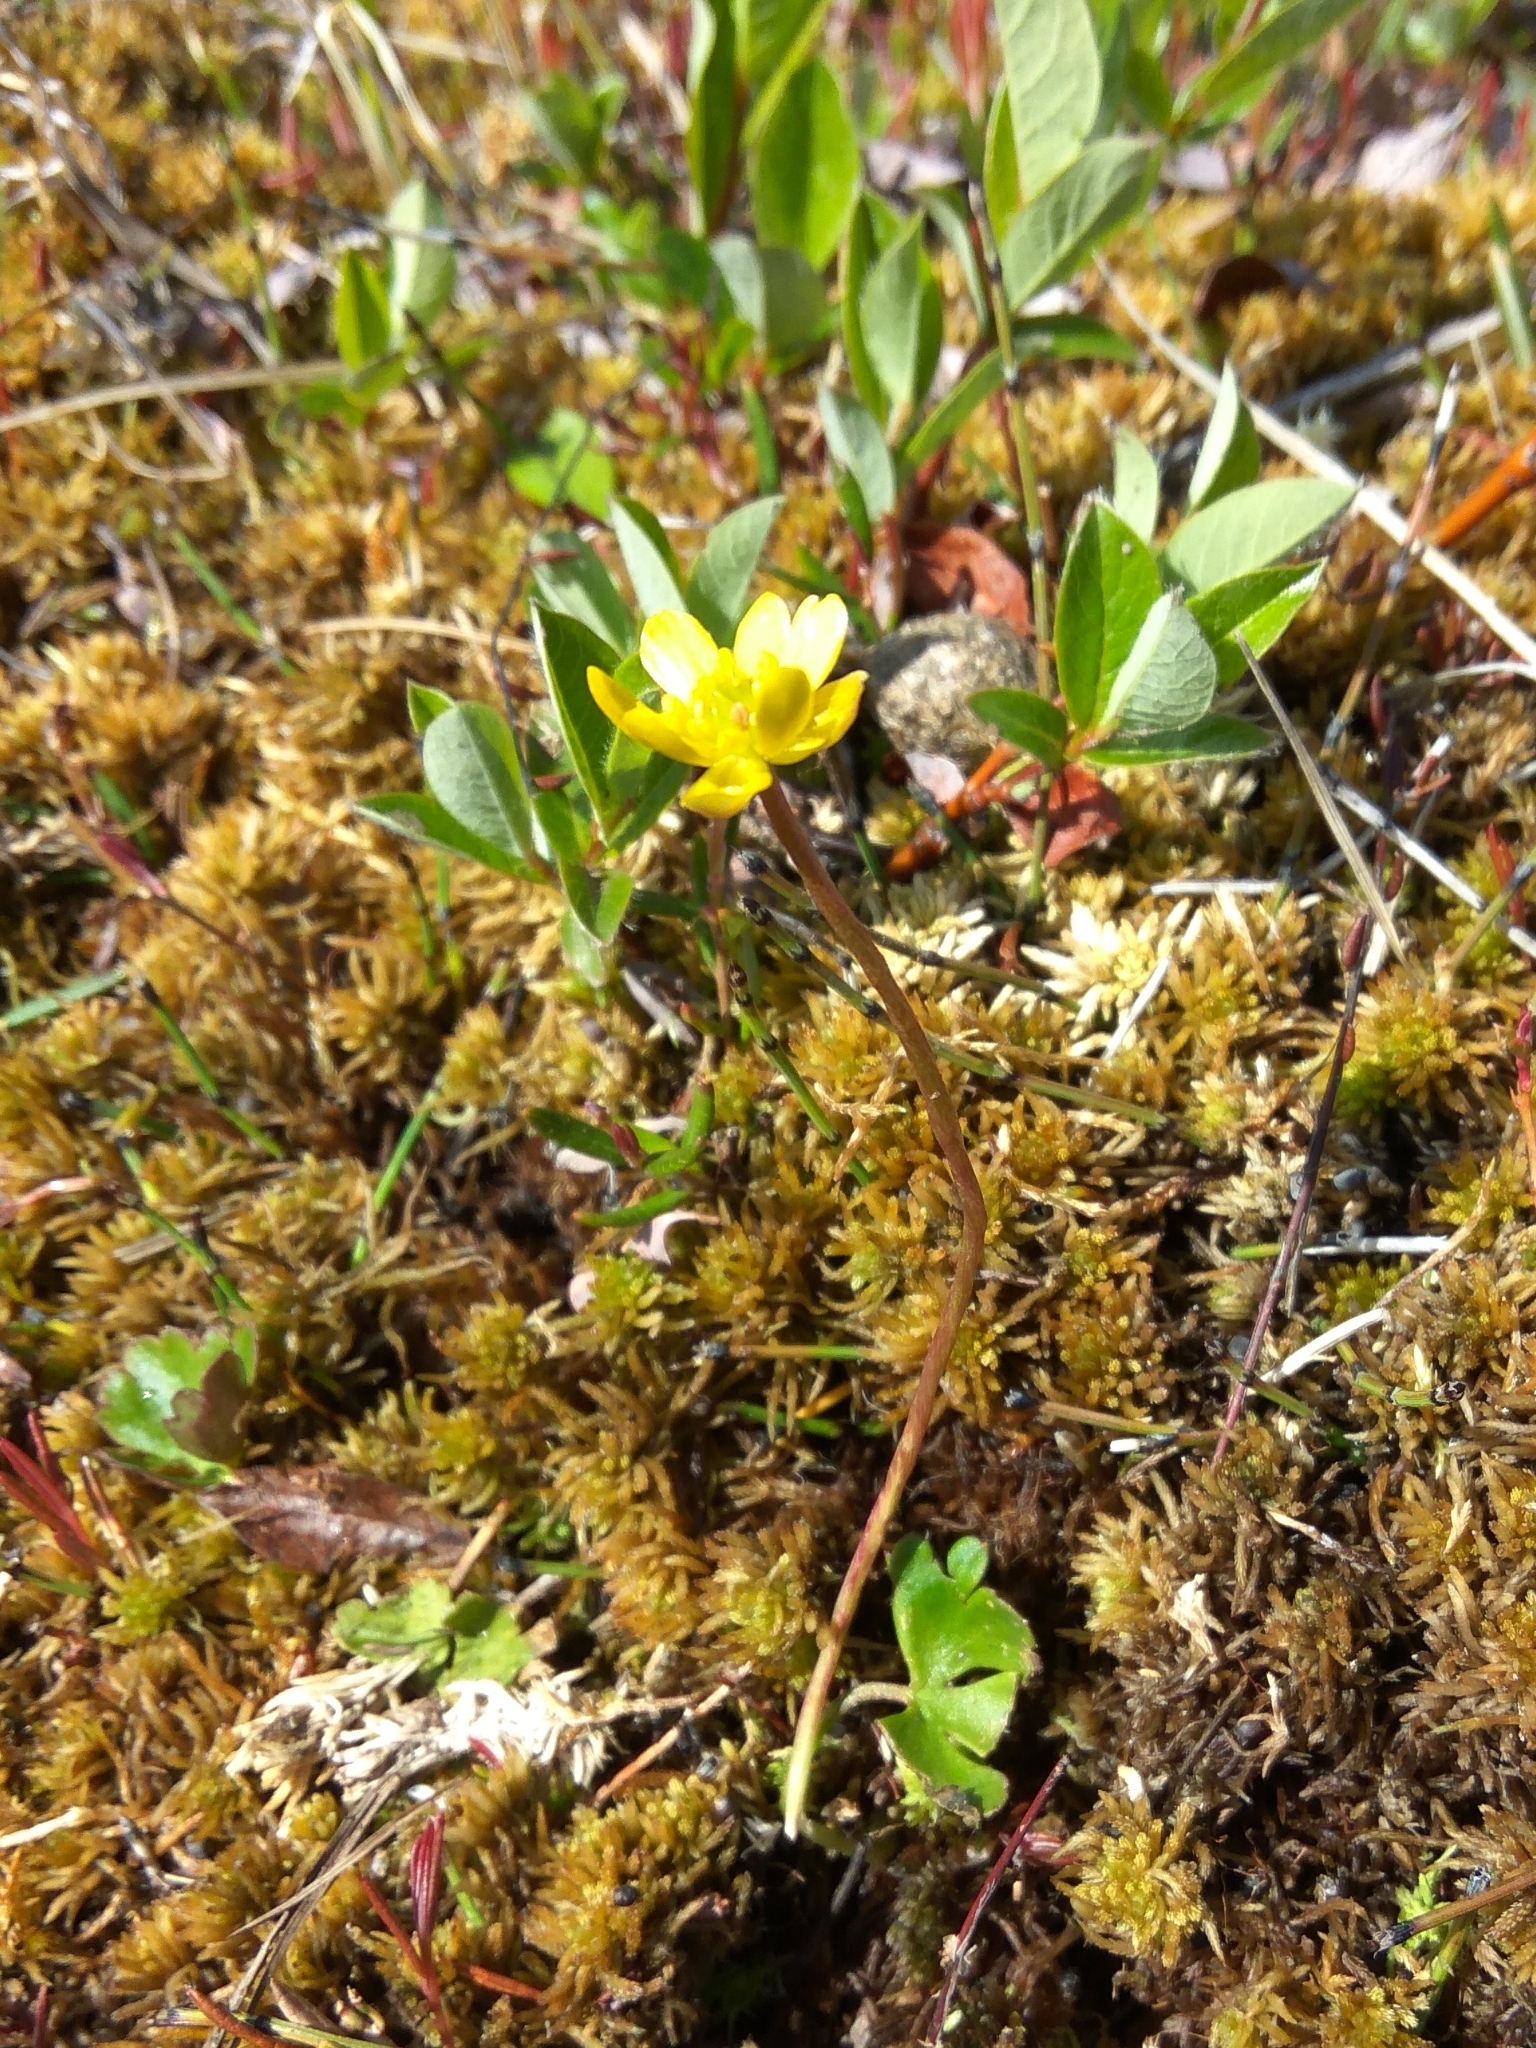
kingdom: Plantae
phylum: Tracheophyta
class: Magnoliopsida
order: Ranunculales
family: Ranunculaceae
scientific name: Ranunculaceae
